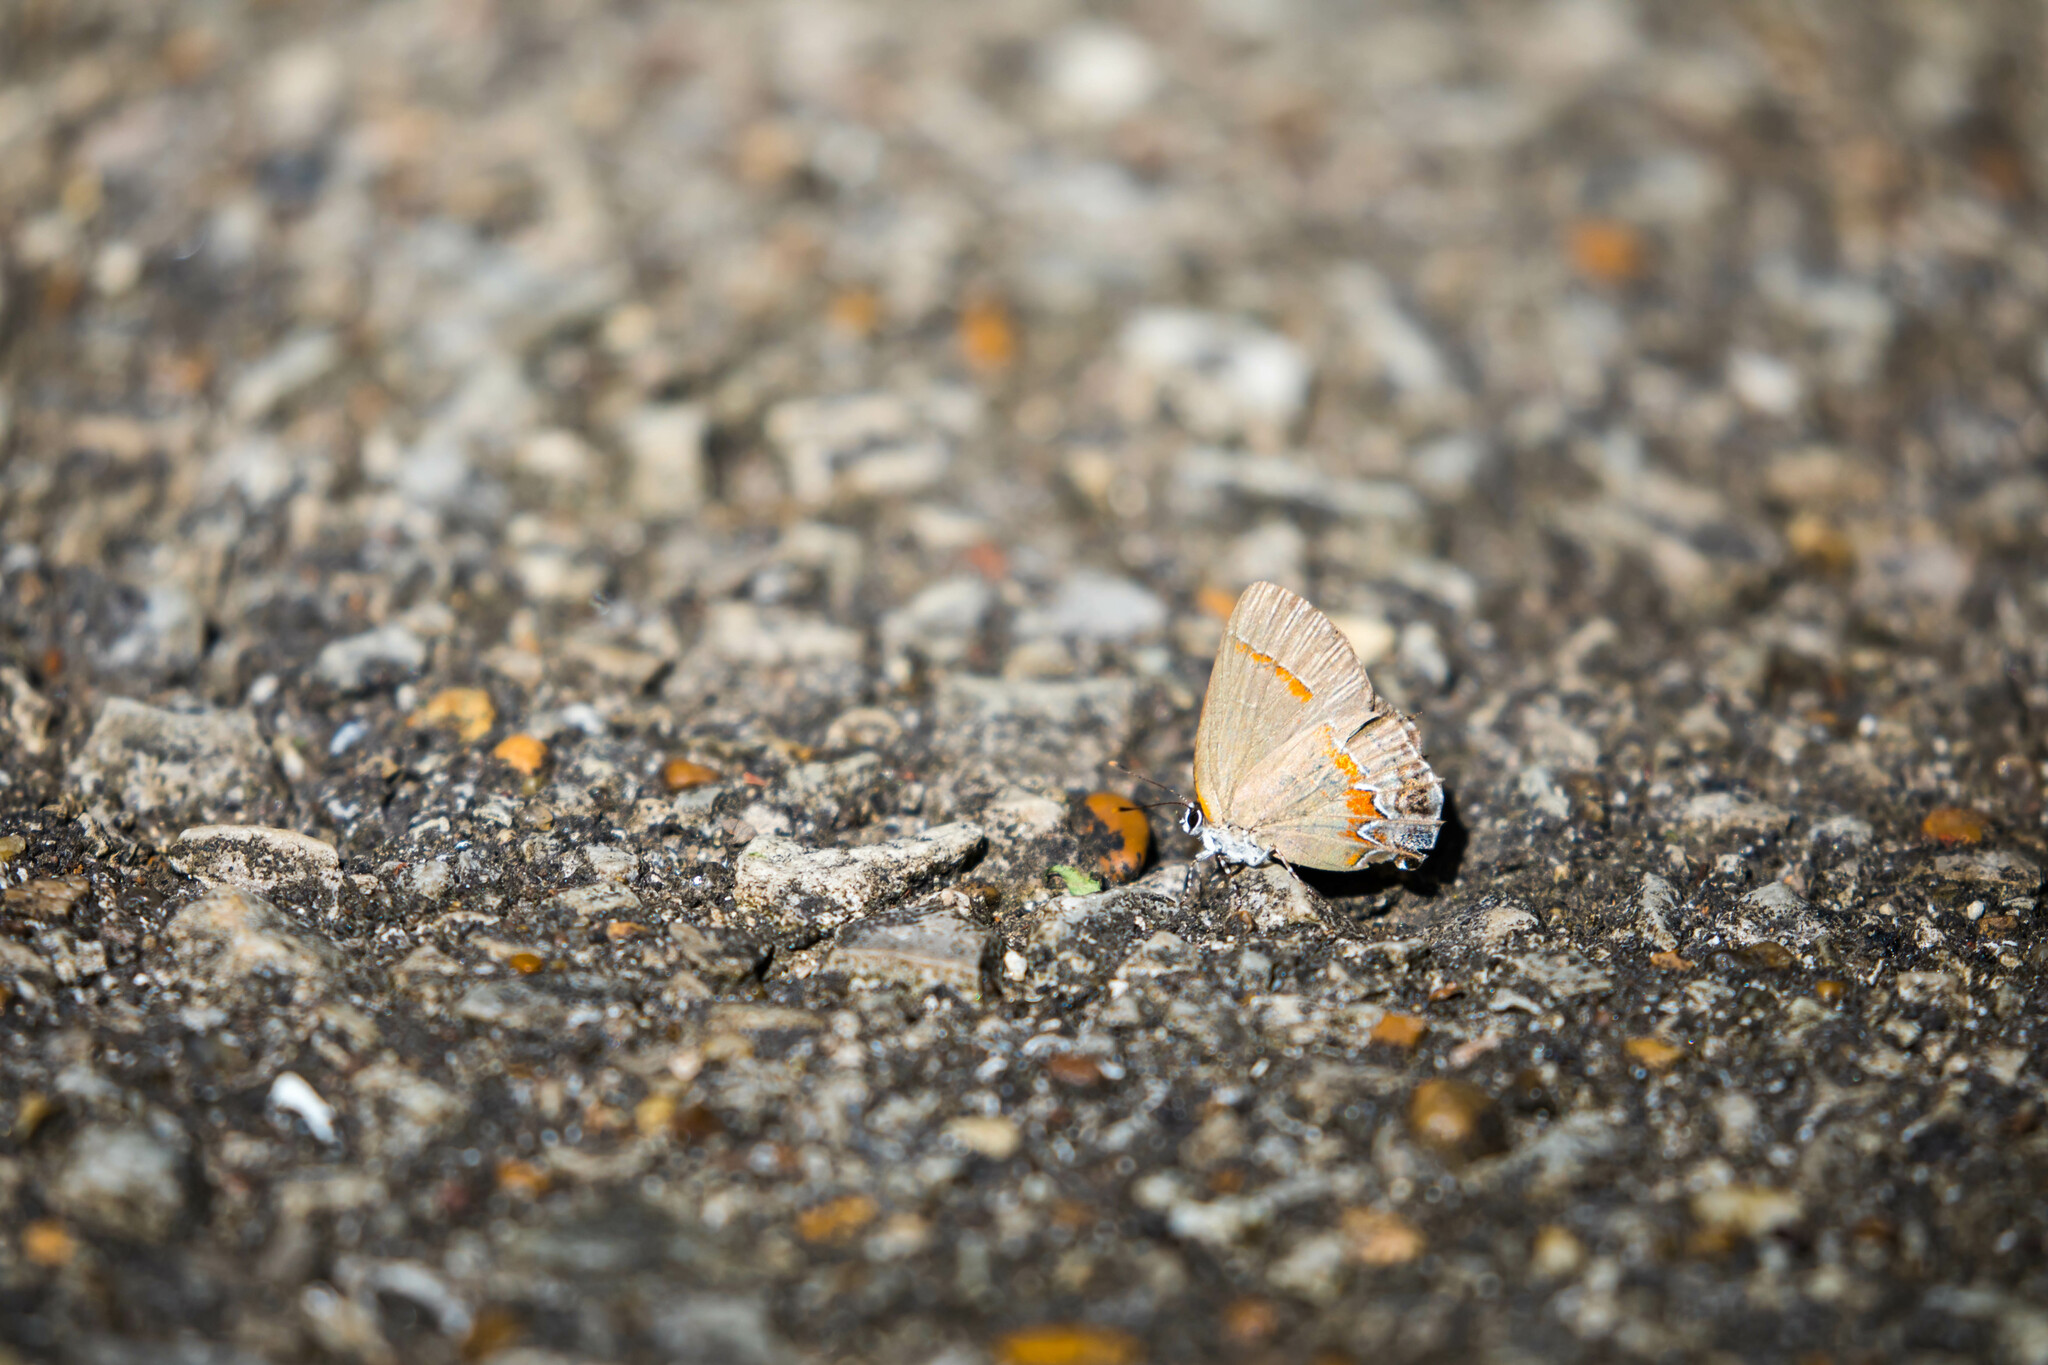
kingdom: Animalia
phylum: Arthropoda
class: Insecta
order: Lepidoptera
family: Lycaenidae
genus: Calycopis
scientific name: Calycopis cecrops
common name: Red-banded hairstreak
